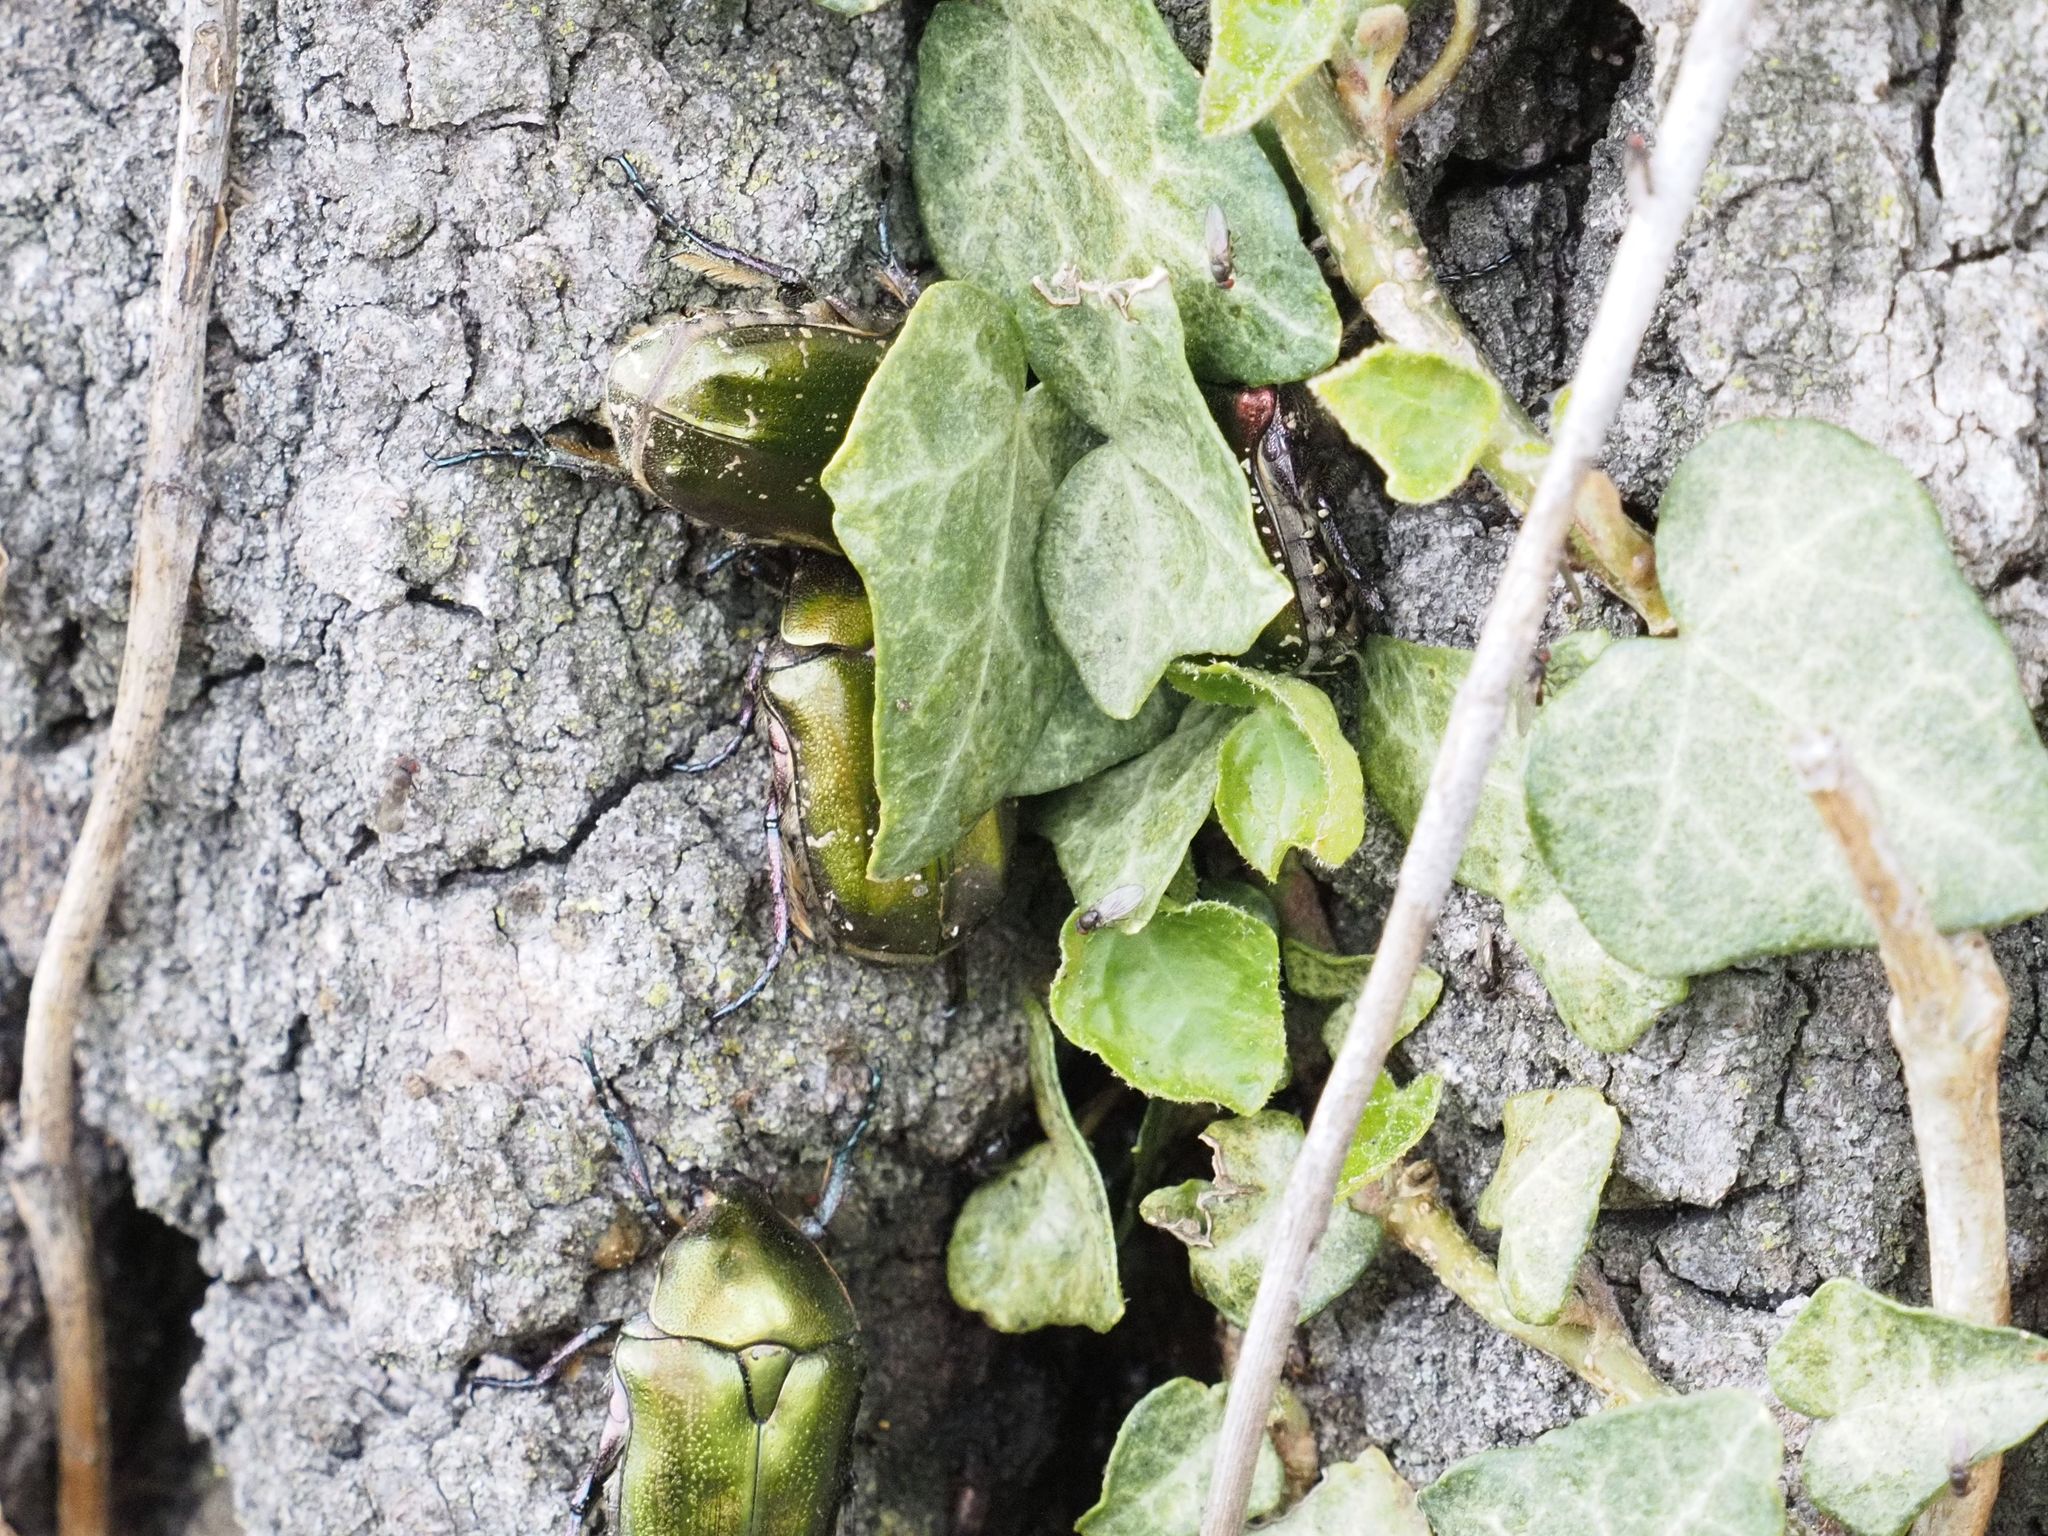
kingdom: Animalia
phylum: Arthropoda
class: Insecta
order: Coleoptera
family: Scarabaeidae
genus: Protaetia
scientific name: Protaetia cuprea
